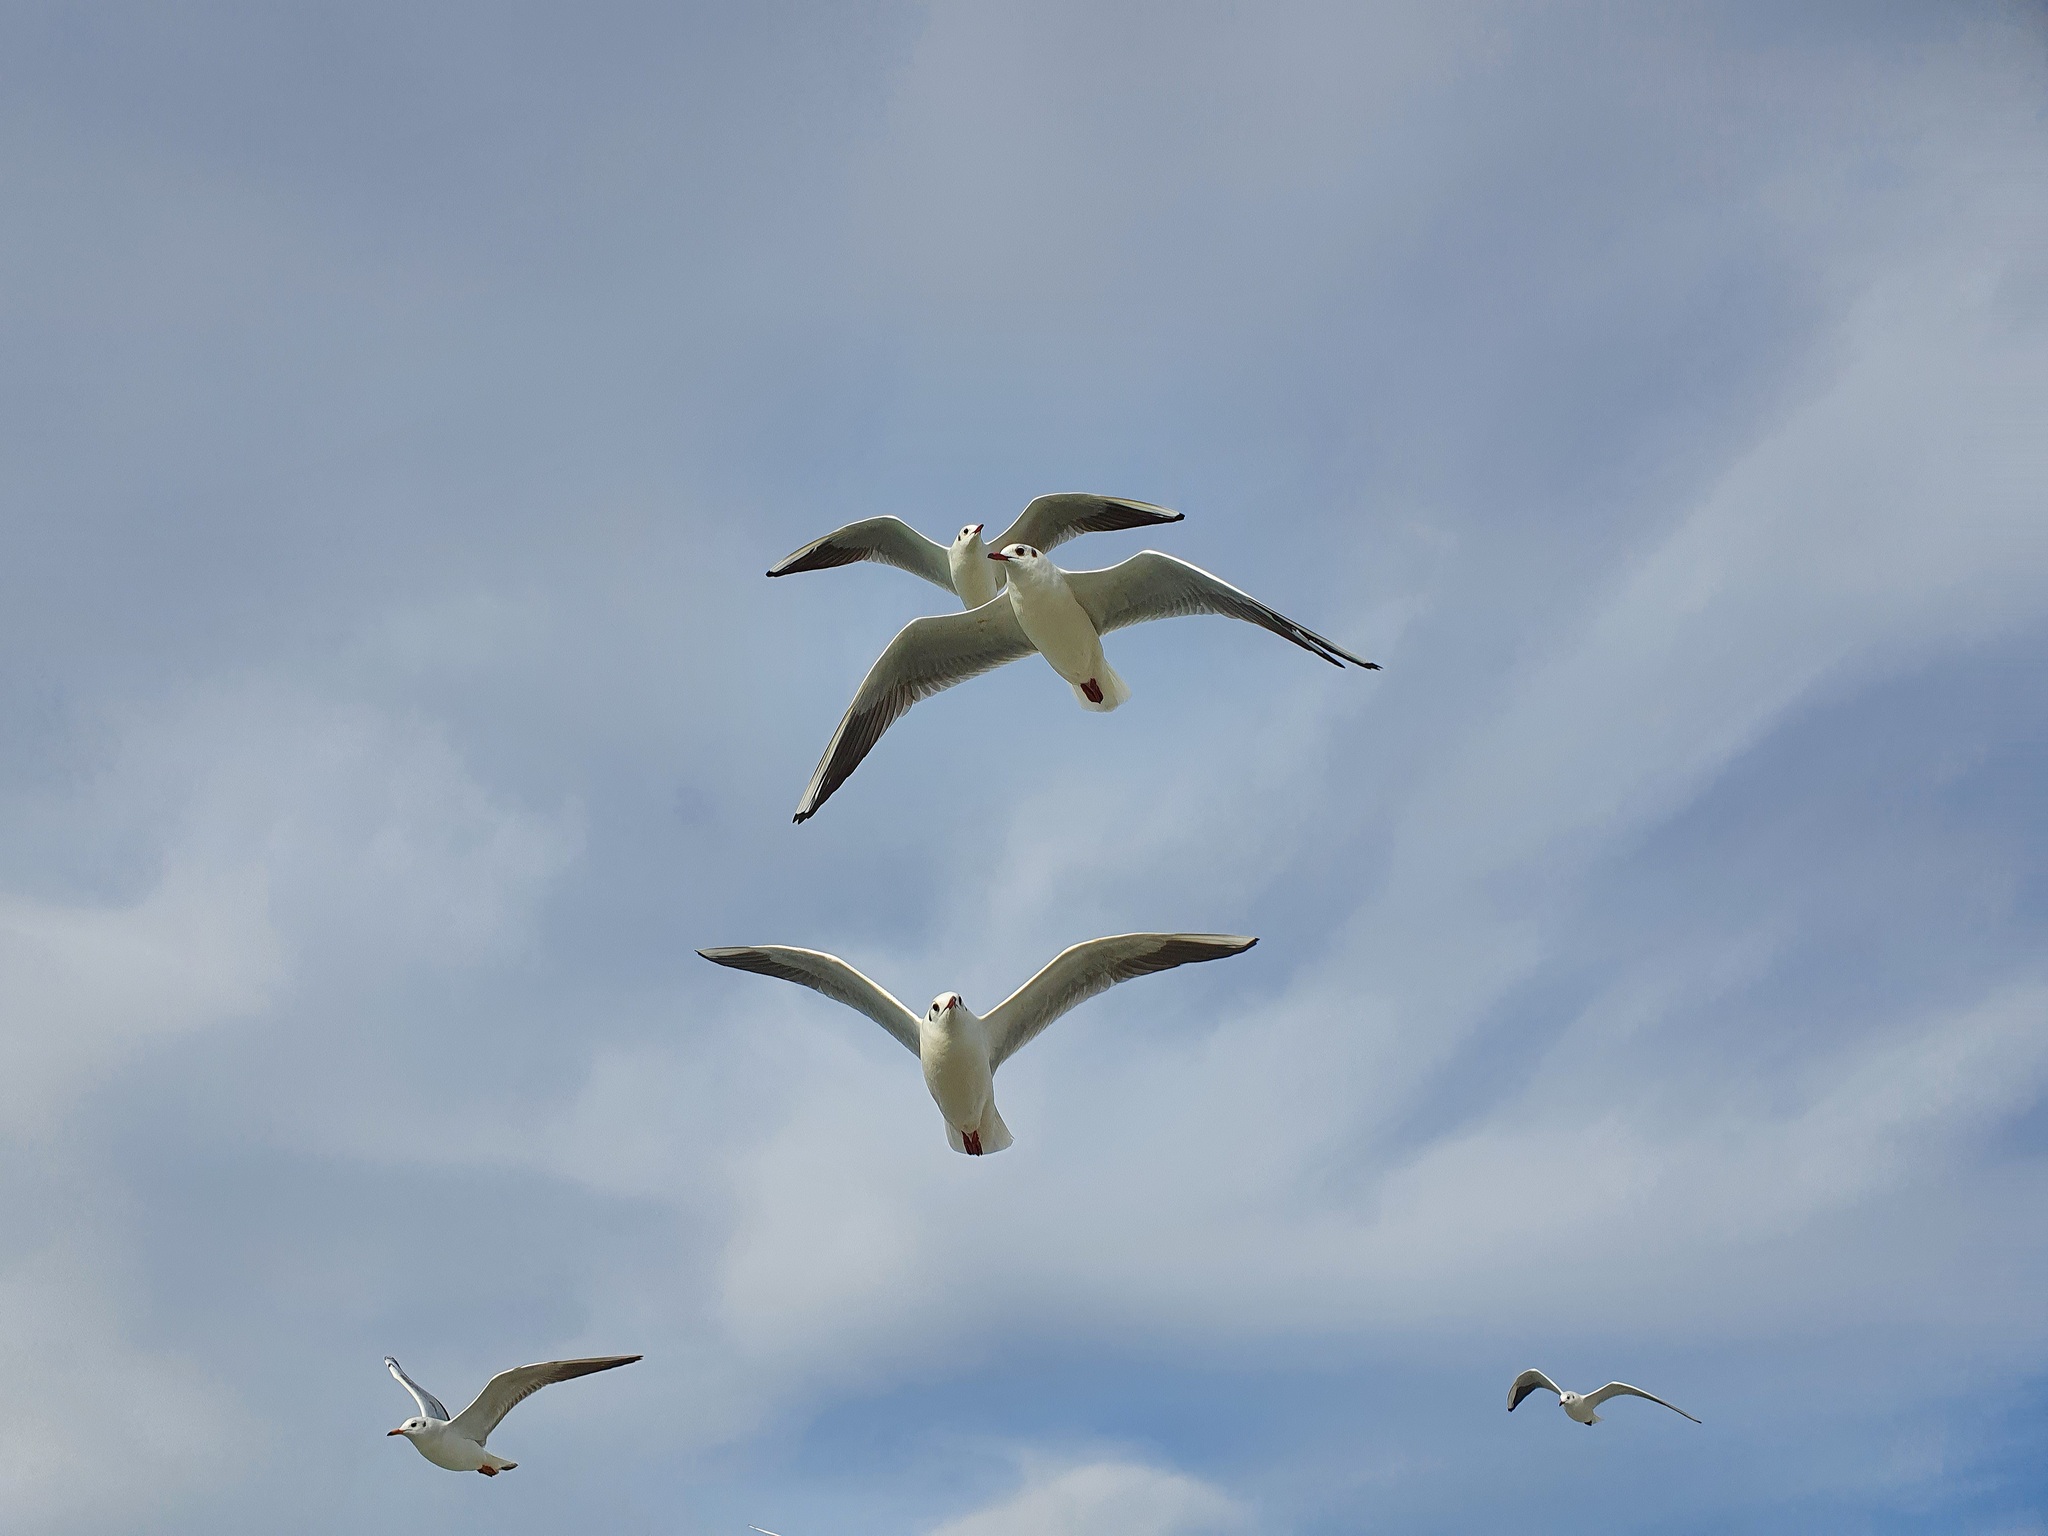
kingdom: Animalia
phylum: Chordata
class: Aves
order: Charadriiformes
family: Laridae
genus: Chroicocephalus
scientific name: Chroicocephalus ridibundus
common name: Black-headed gull
